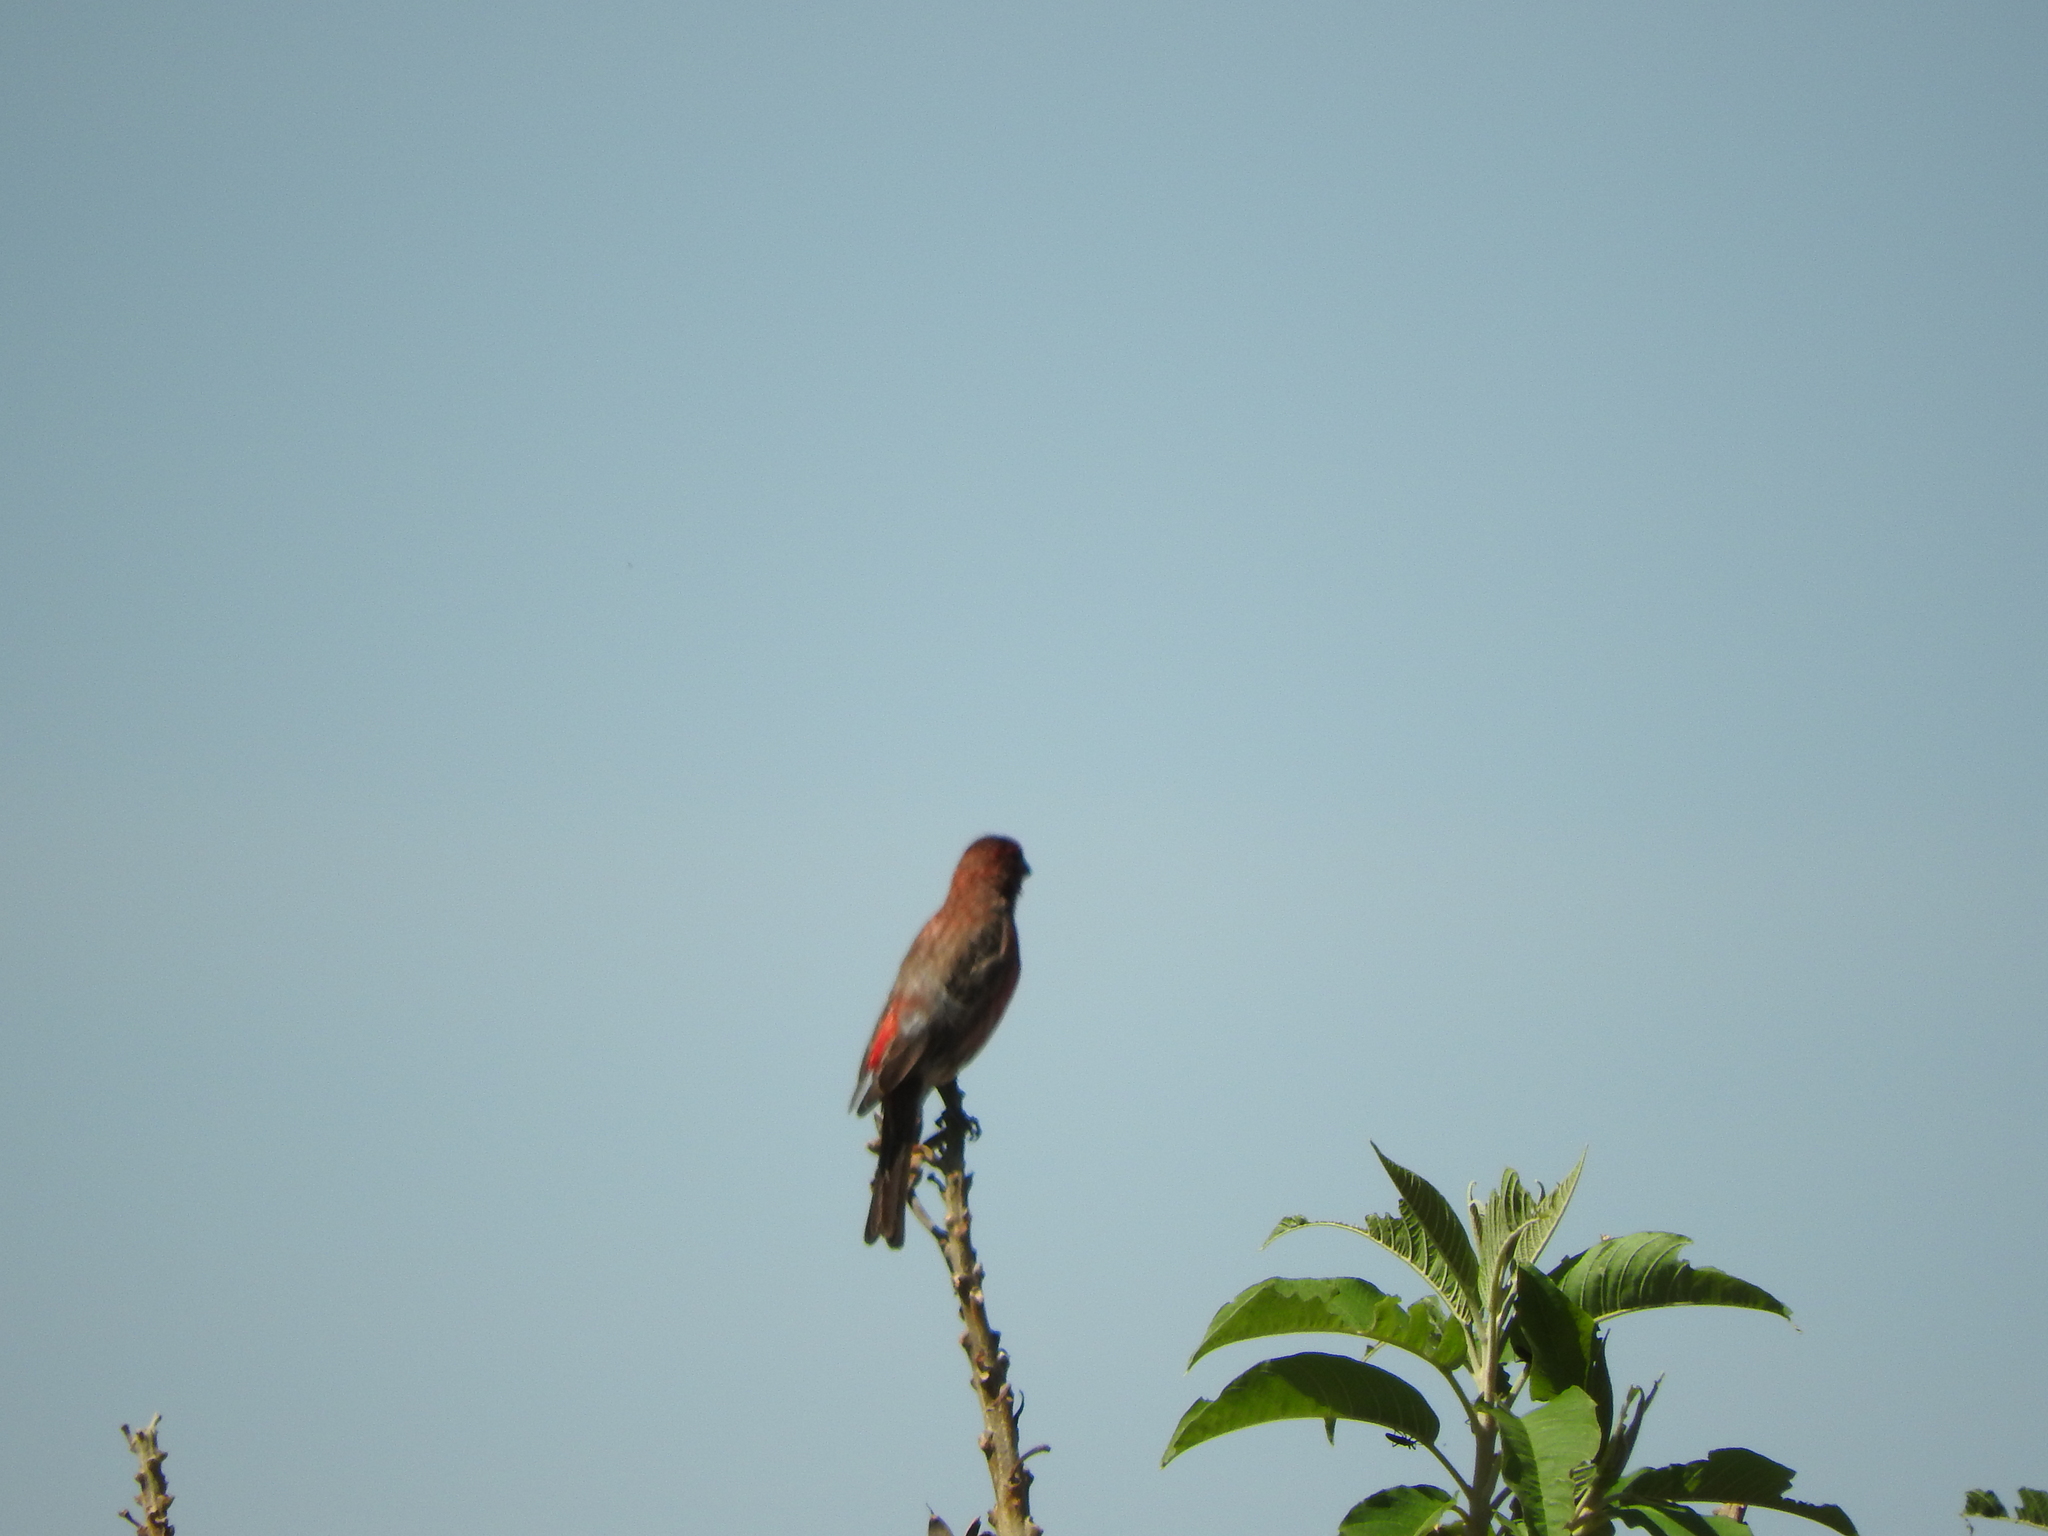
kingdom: Animalia
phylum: Chordata
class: Aves
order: Passeriformes
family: Fringillidae
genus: Haemorhous
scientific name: Haemorhous mexicanus
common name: House finch
